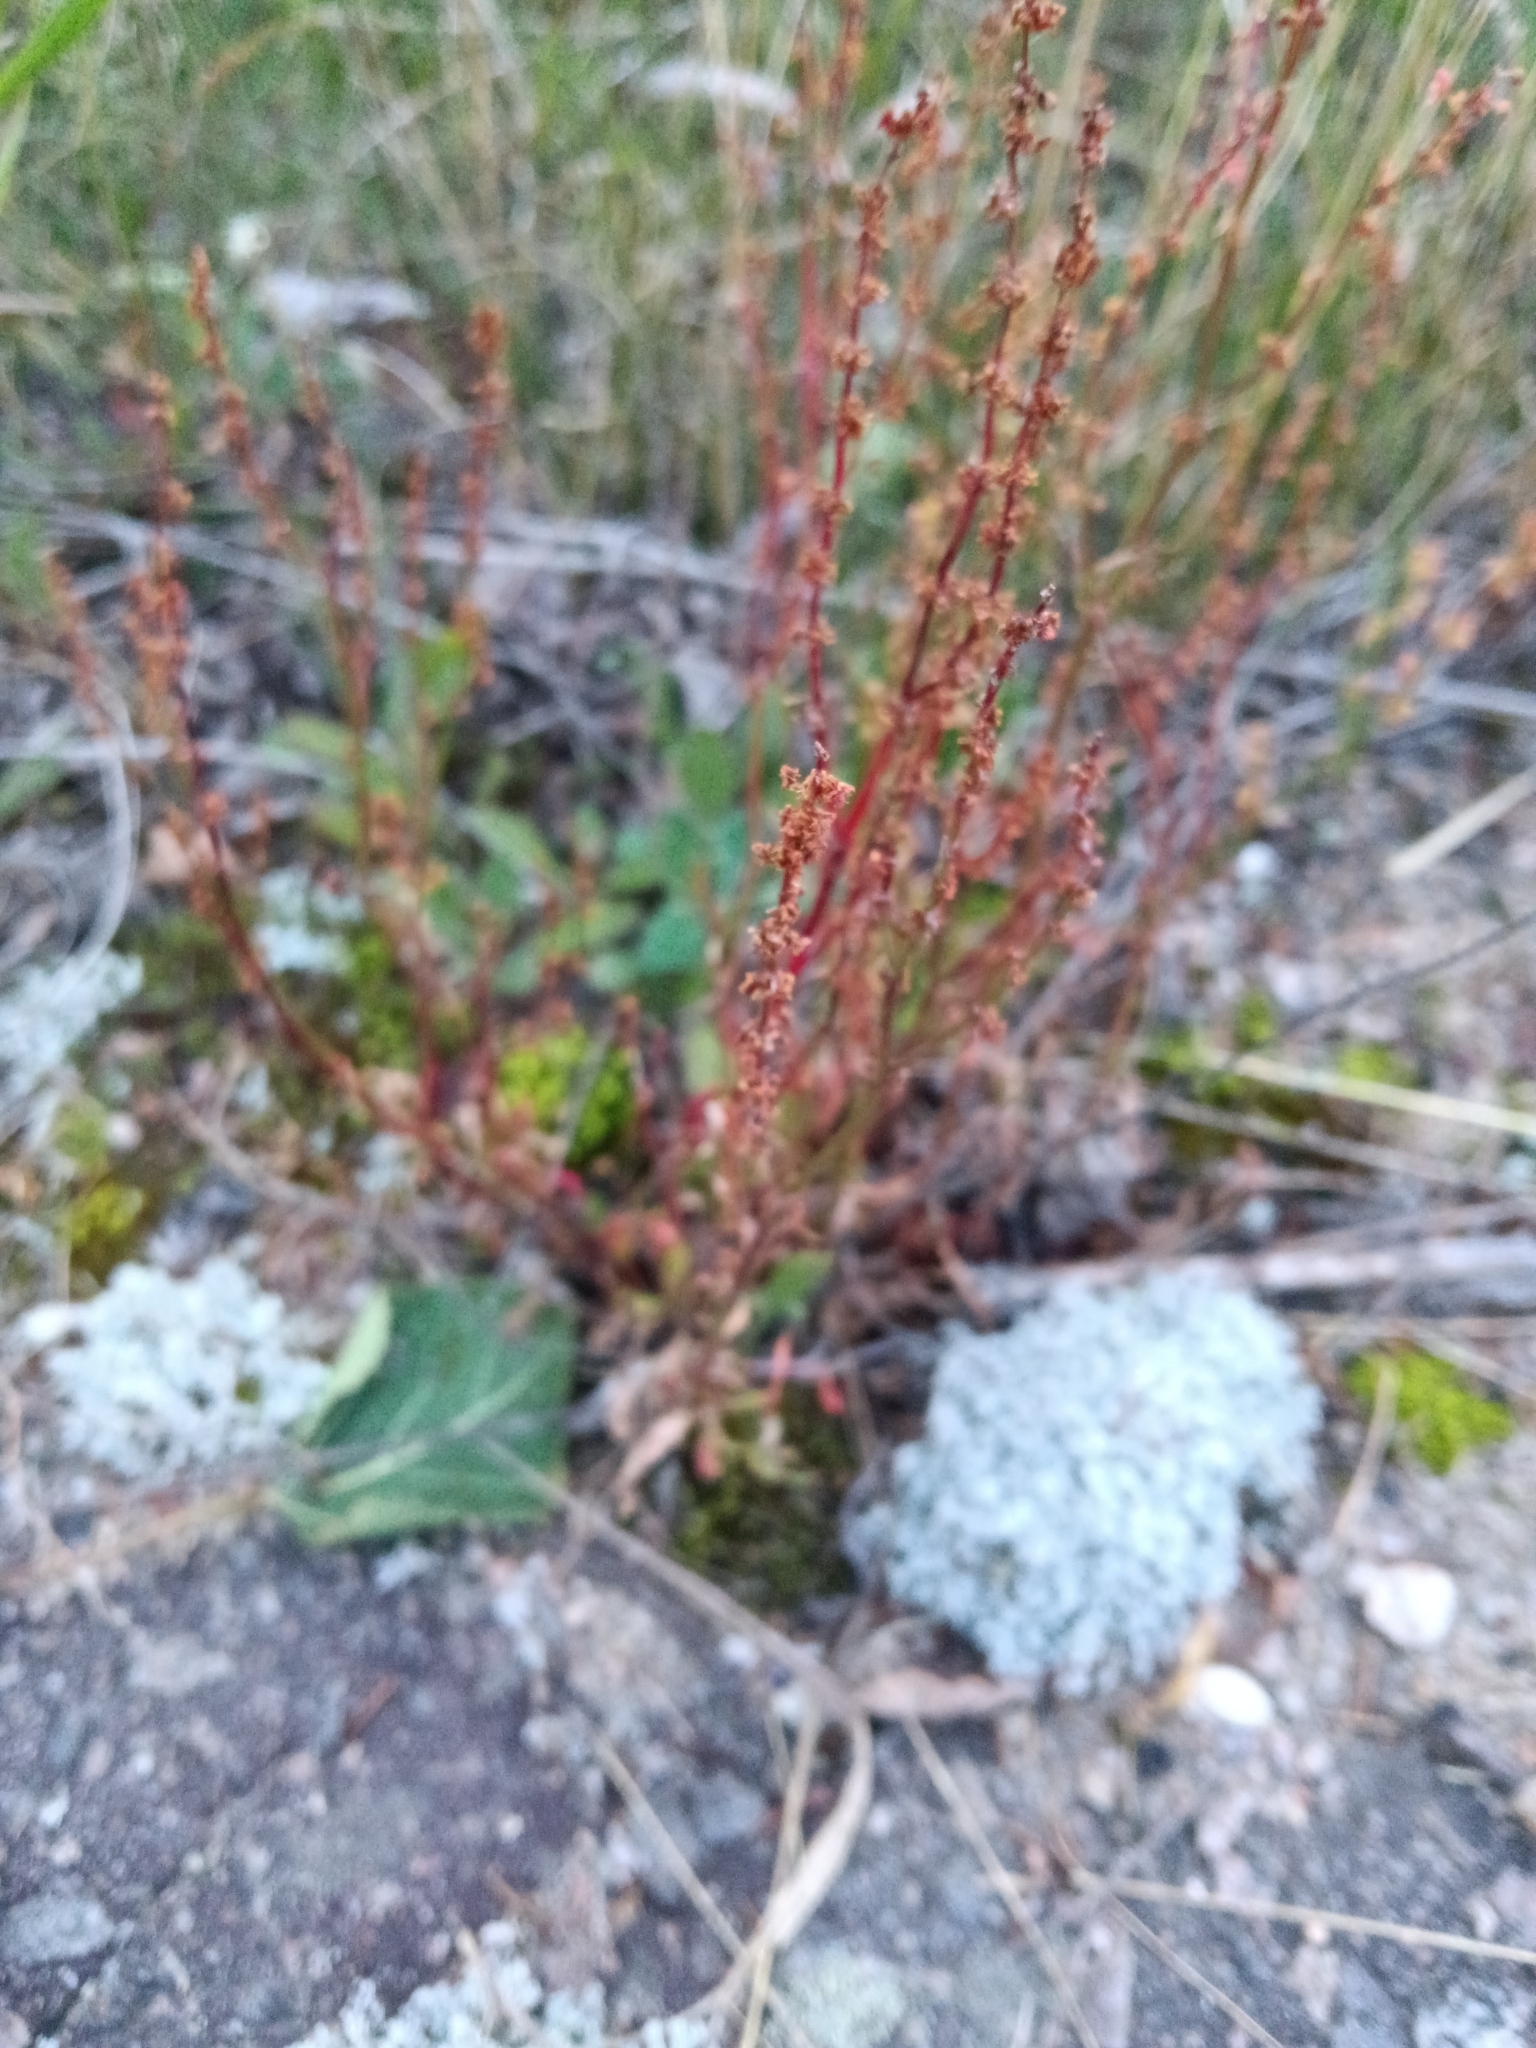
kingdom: Plantae
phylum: Tracheophyta
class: Magnoliopsida
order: Caryophyllales
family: Polygonaceae
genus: Rumex
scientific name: Rumex acetosella
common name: Common sheep sorrel
